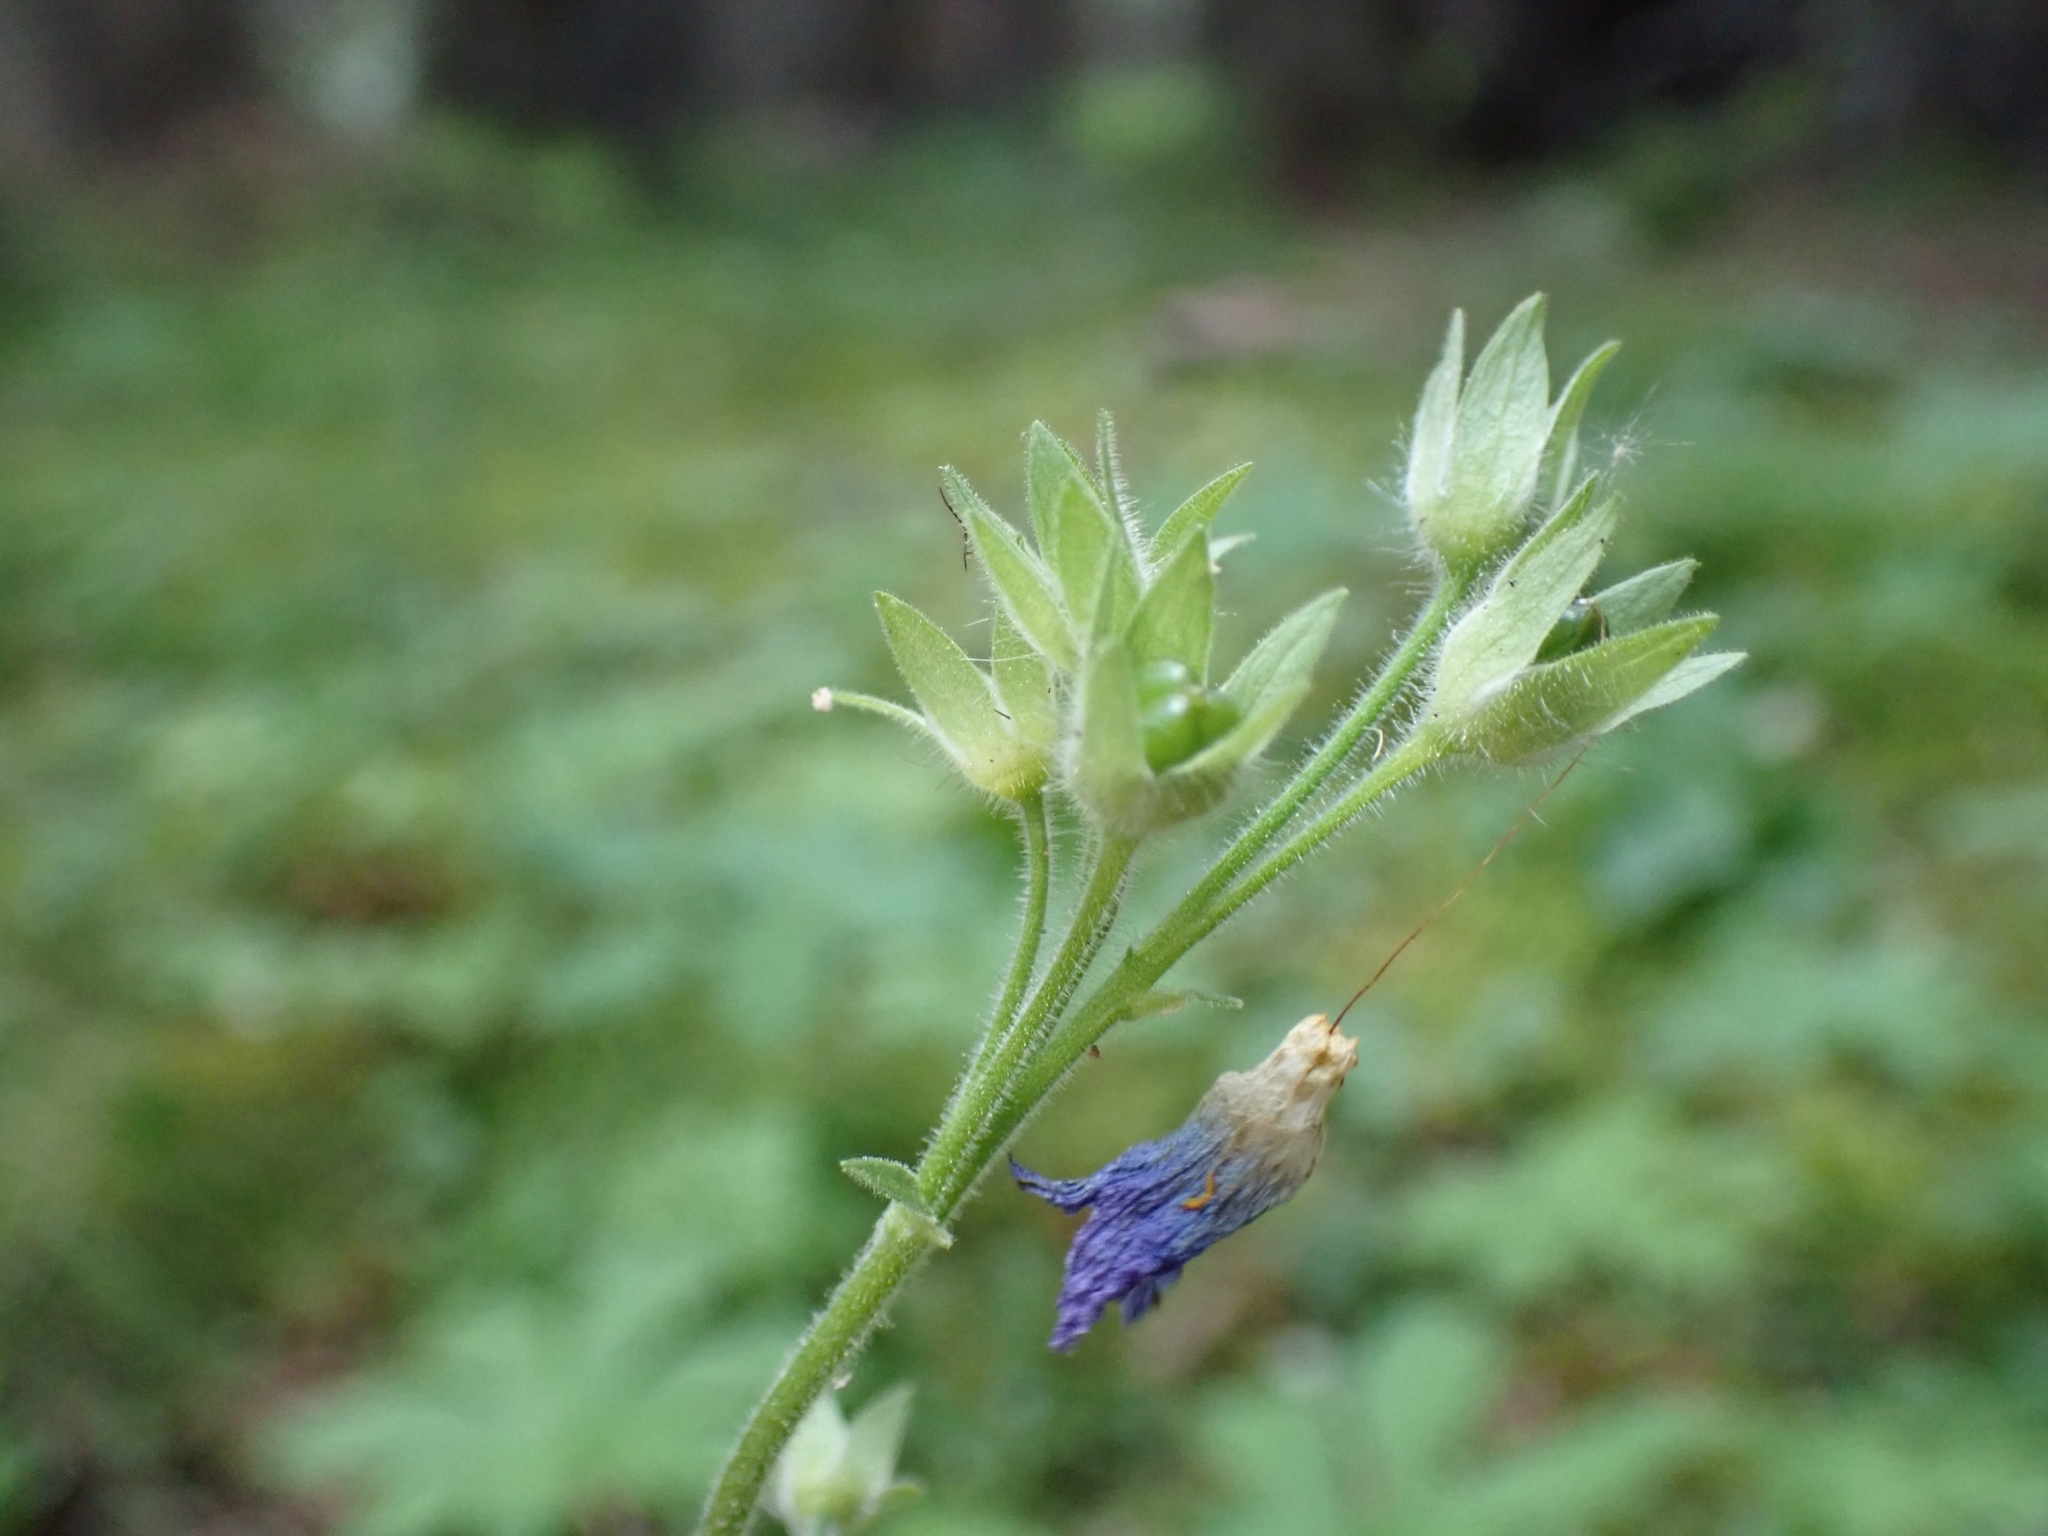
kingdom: Plantae
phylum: Tracheophyta
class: Magnoliopsida
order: Ericales
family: Polemoniaceae
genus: Polemonium
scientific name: Polemonium acutiflorum
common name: Tall jacob's-ladder
